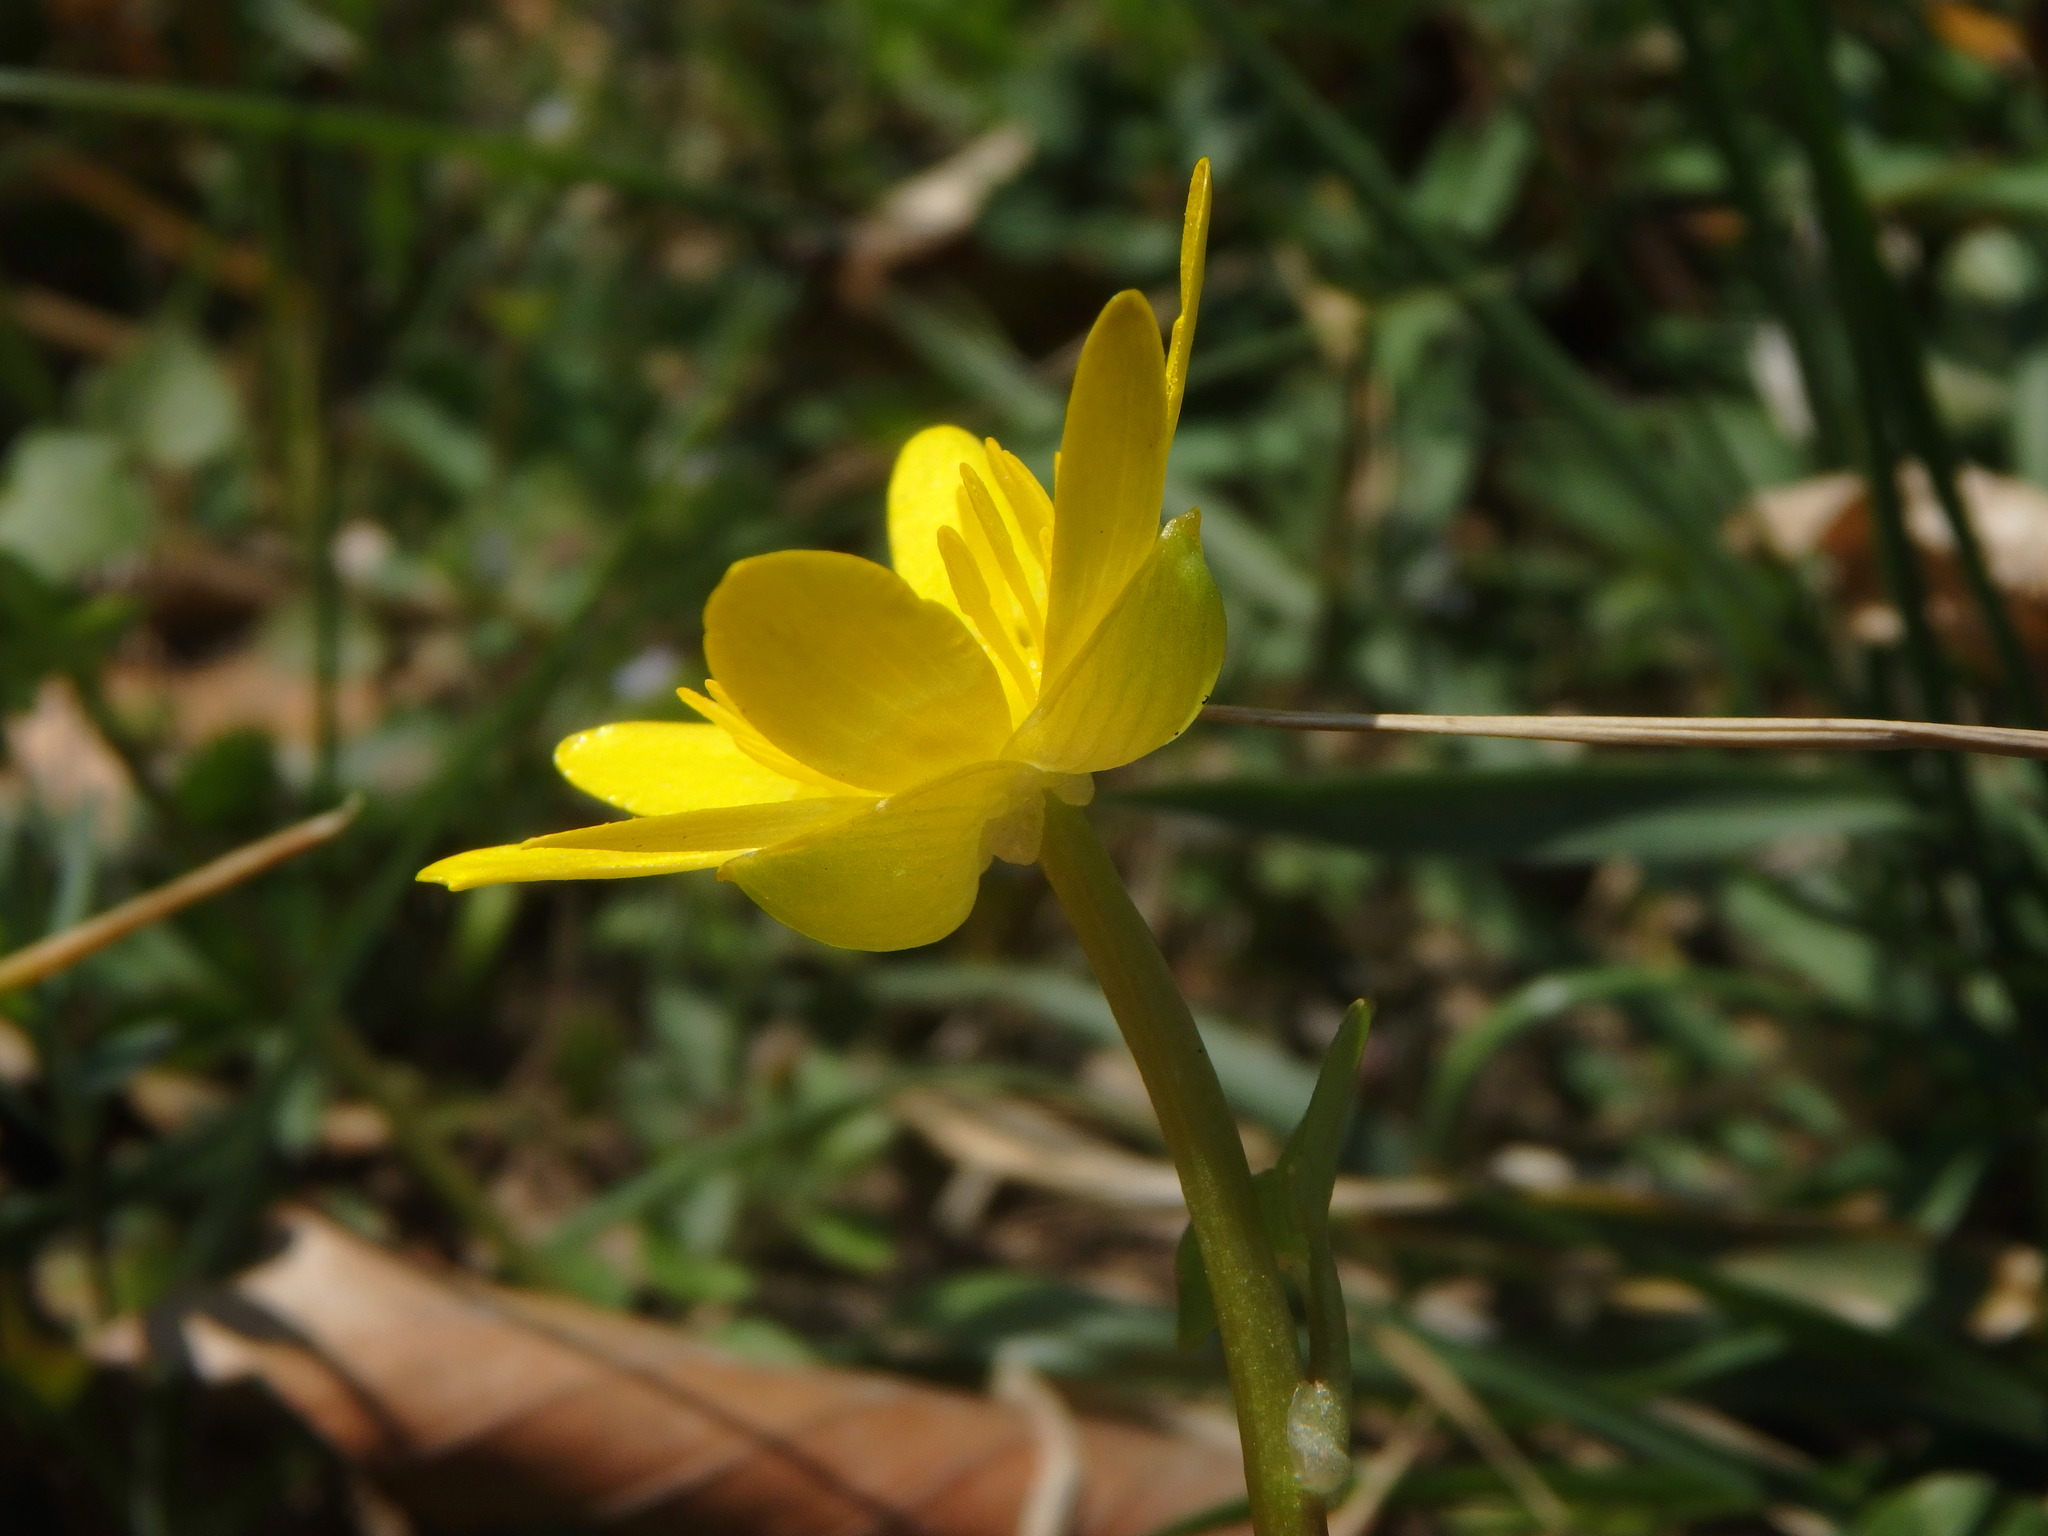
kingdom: Plantae
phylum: Tracheophyta
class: Magnoliopsida
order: Ranunculales
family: Ranunculaceae
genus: Ficaria
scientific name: Ficaria verna
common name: Lesser celandine
